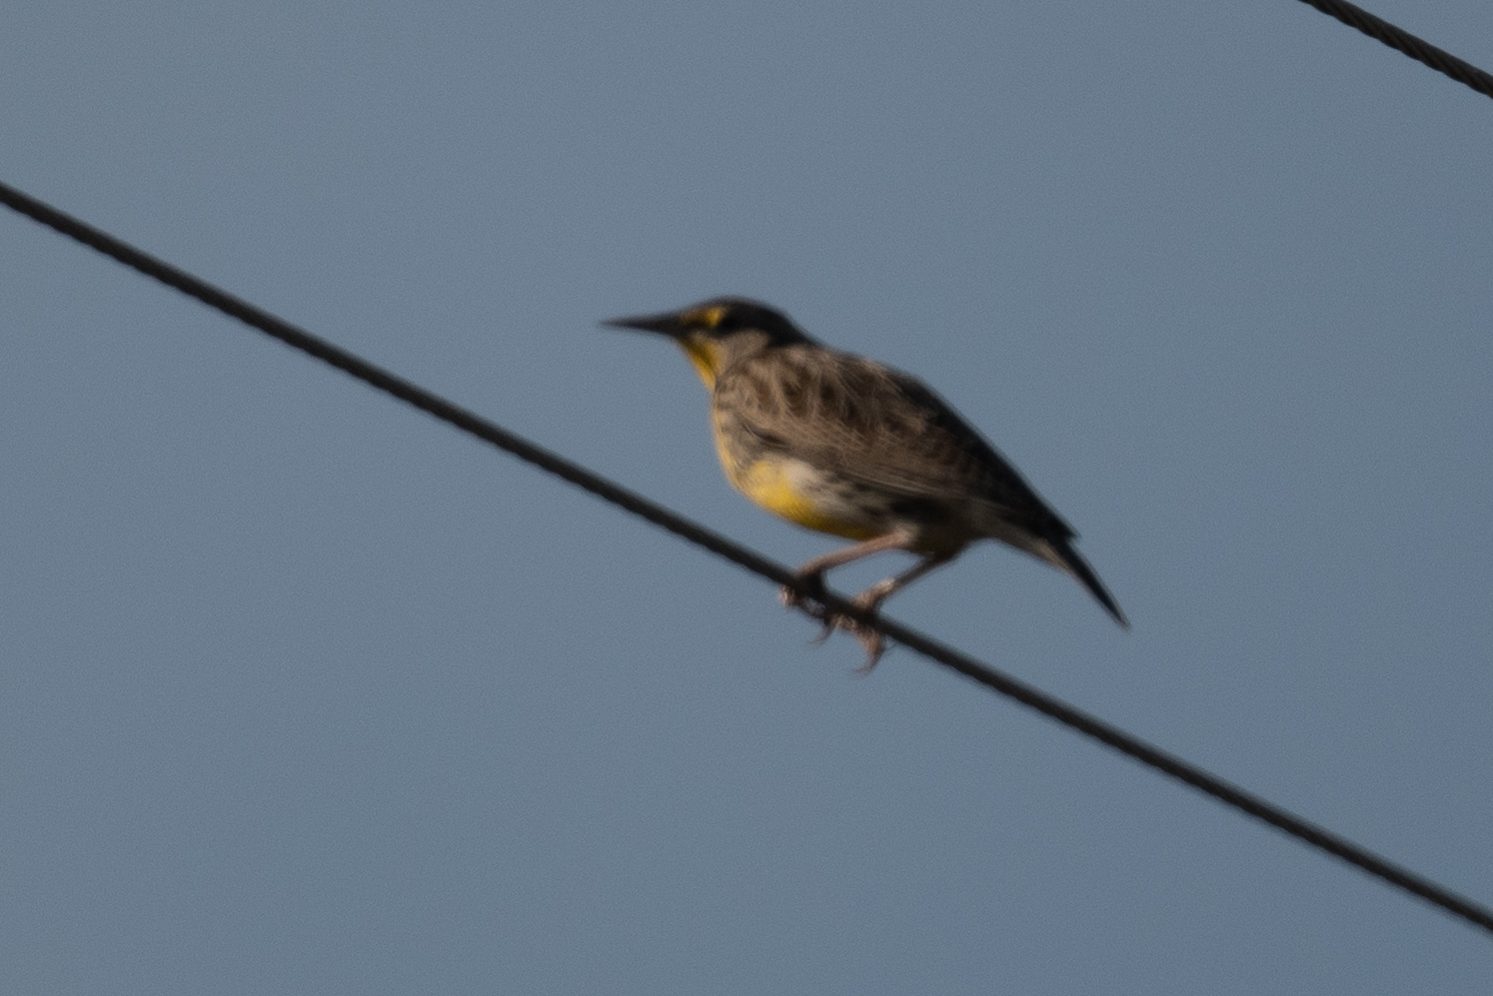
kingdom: Animalia
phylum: Chordata
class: Aves
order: Passeriformes
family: Icteridae
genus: Sturnella
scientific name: Sturnella neglecta
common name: Western meadowlark
